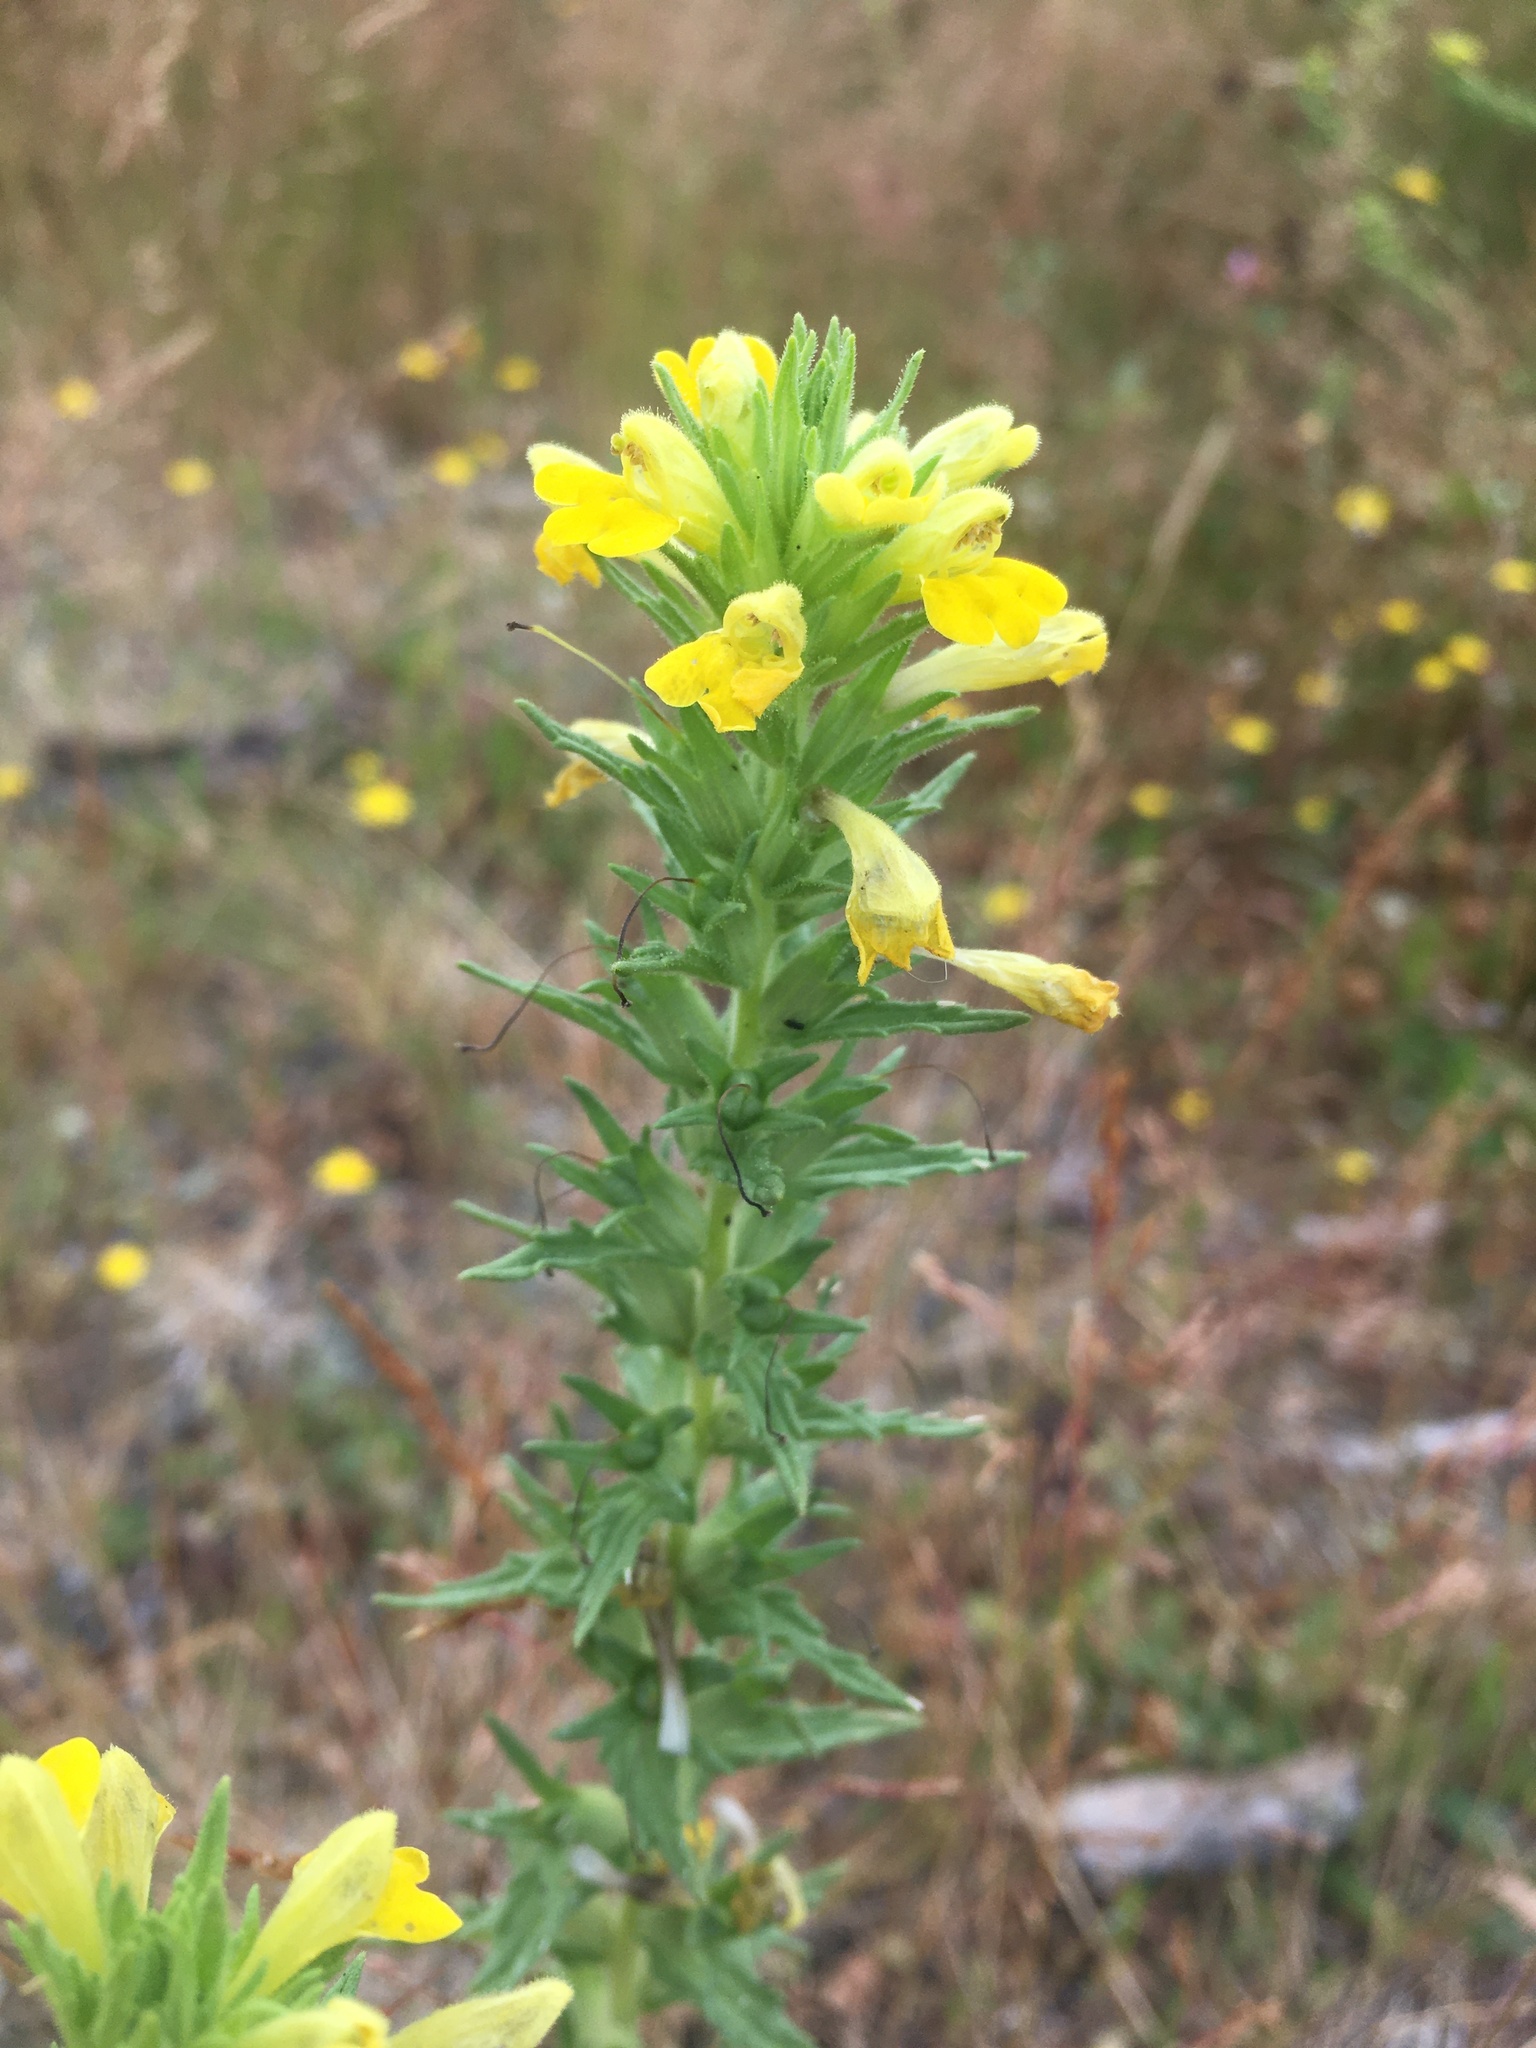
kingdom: Plantae
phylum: Tracheophyta
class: Magnoliopsida
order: Lamiales
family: Orobanchaceae
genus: Bellardia
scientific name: Bellardia viscosa
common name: Sticky parentucellia
